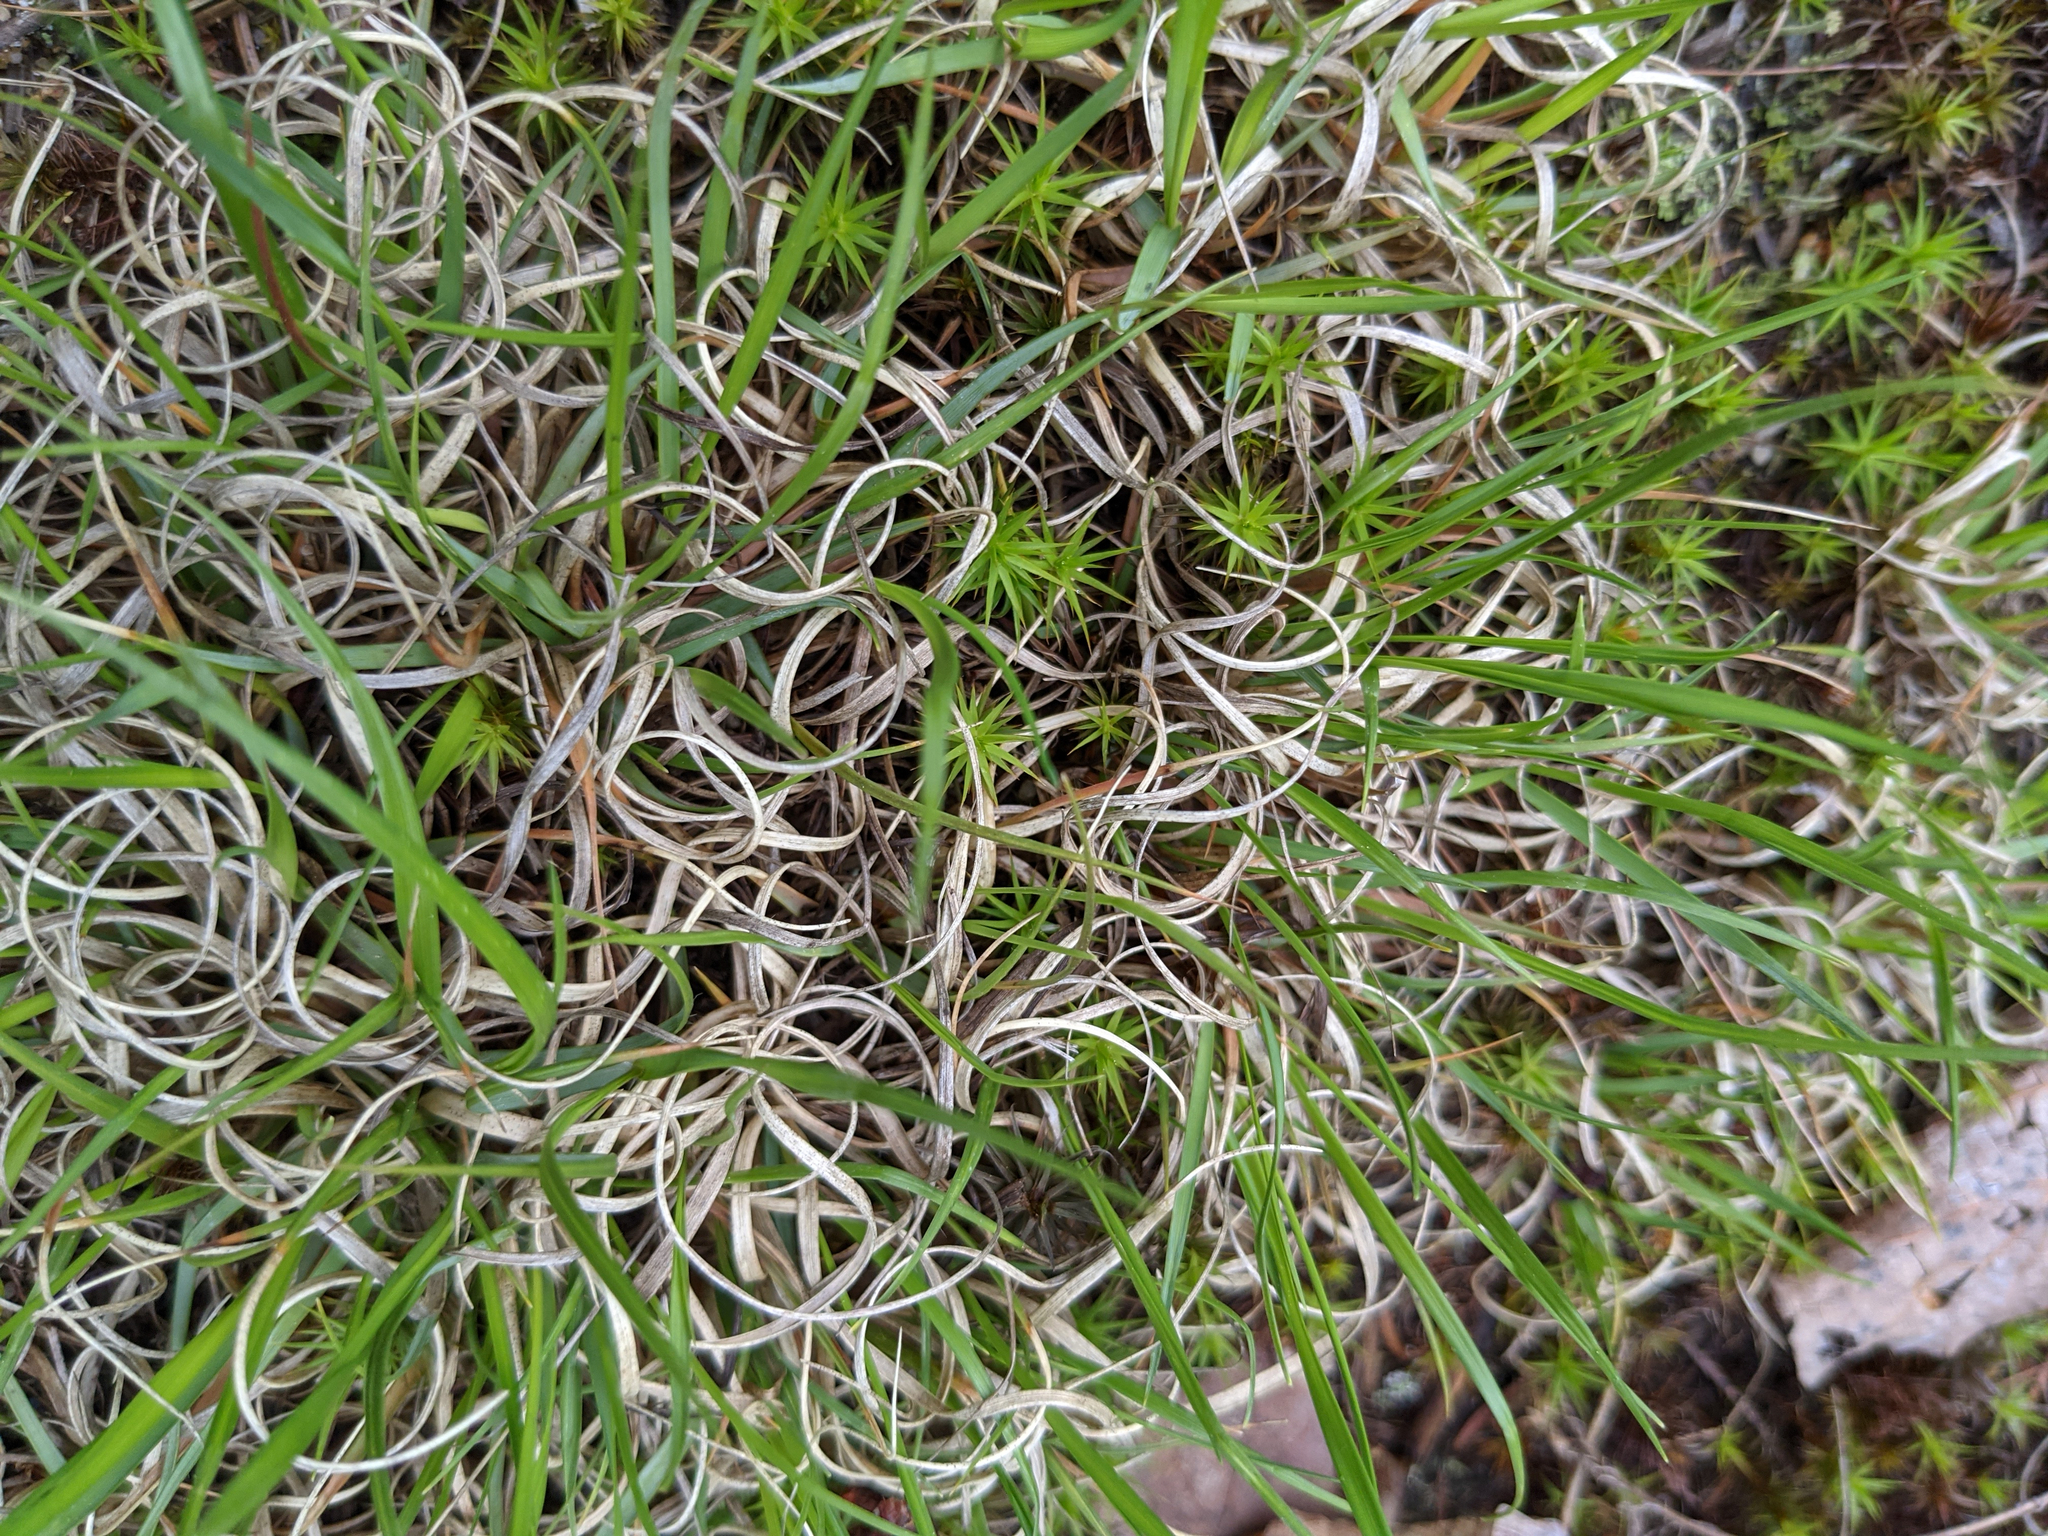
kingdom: Plantae
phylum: Tracheophyta
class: Liliopsida
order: Poales
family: Poaceae
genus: Danthonia
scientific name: Danthonia spicata
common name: Common wild oatgrass
